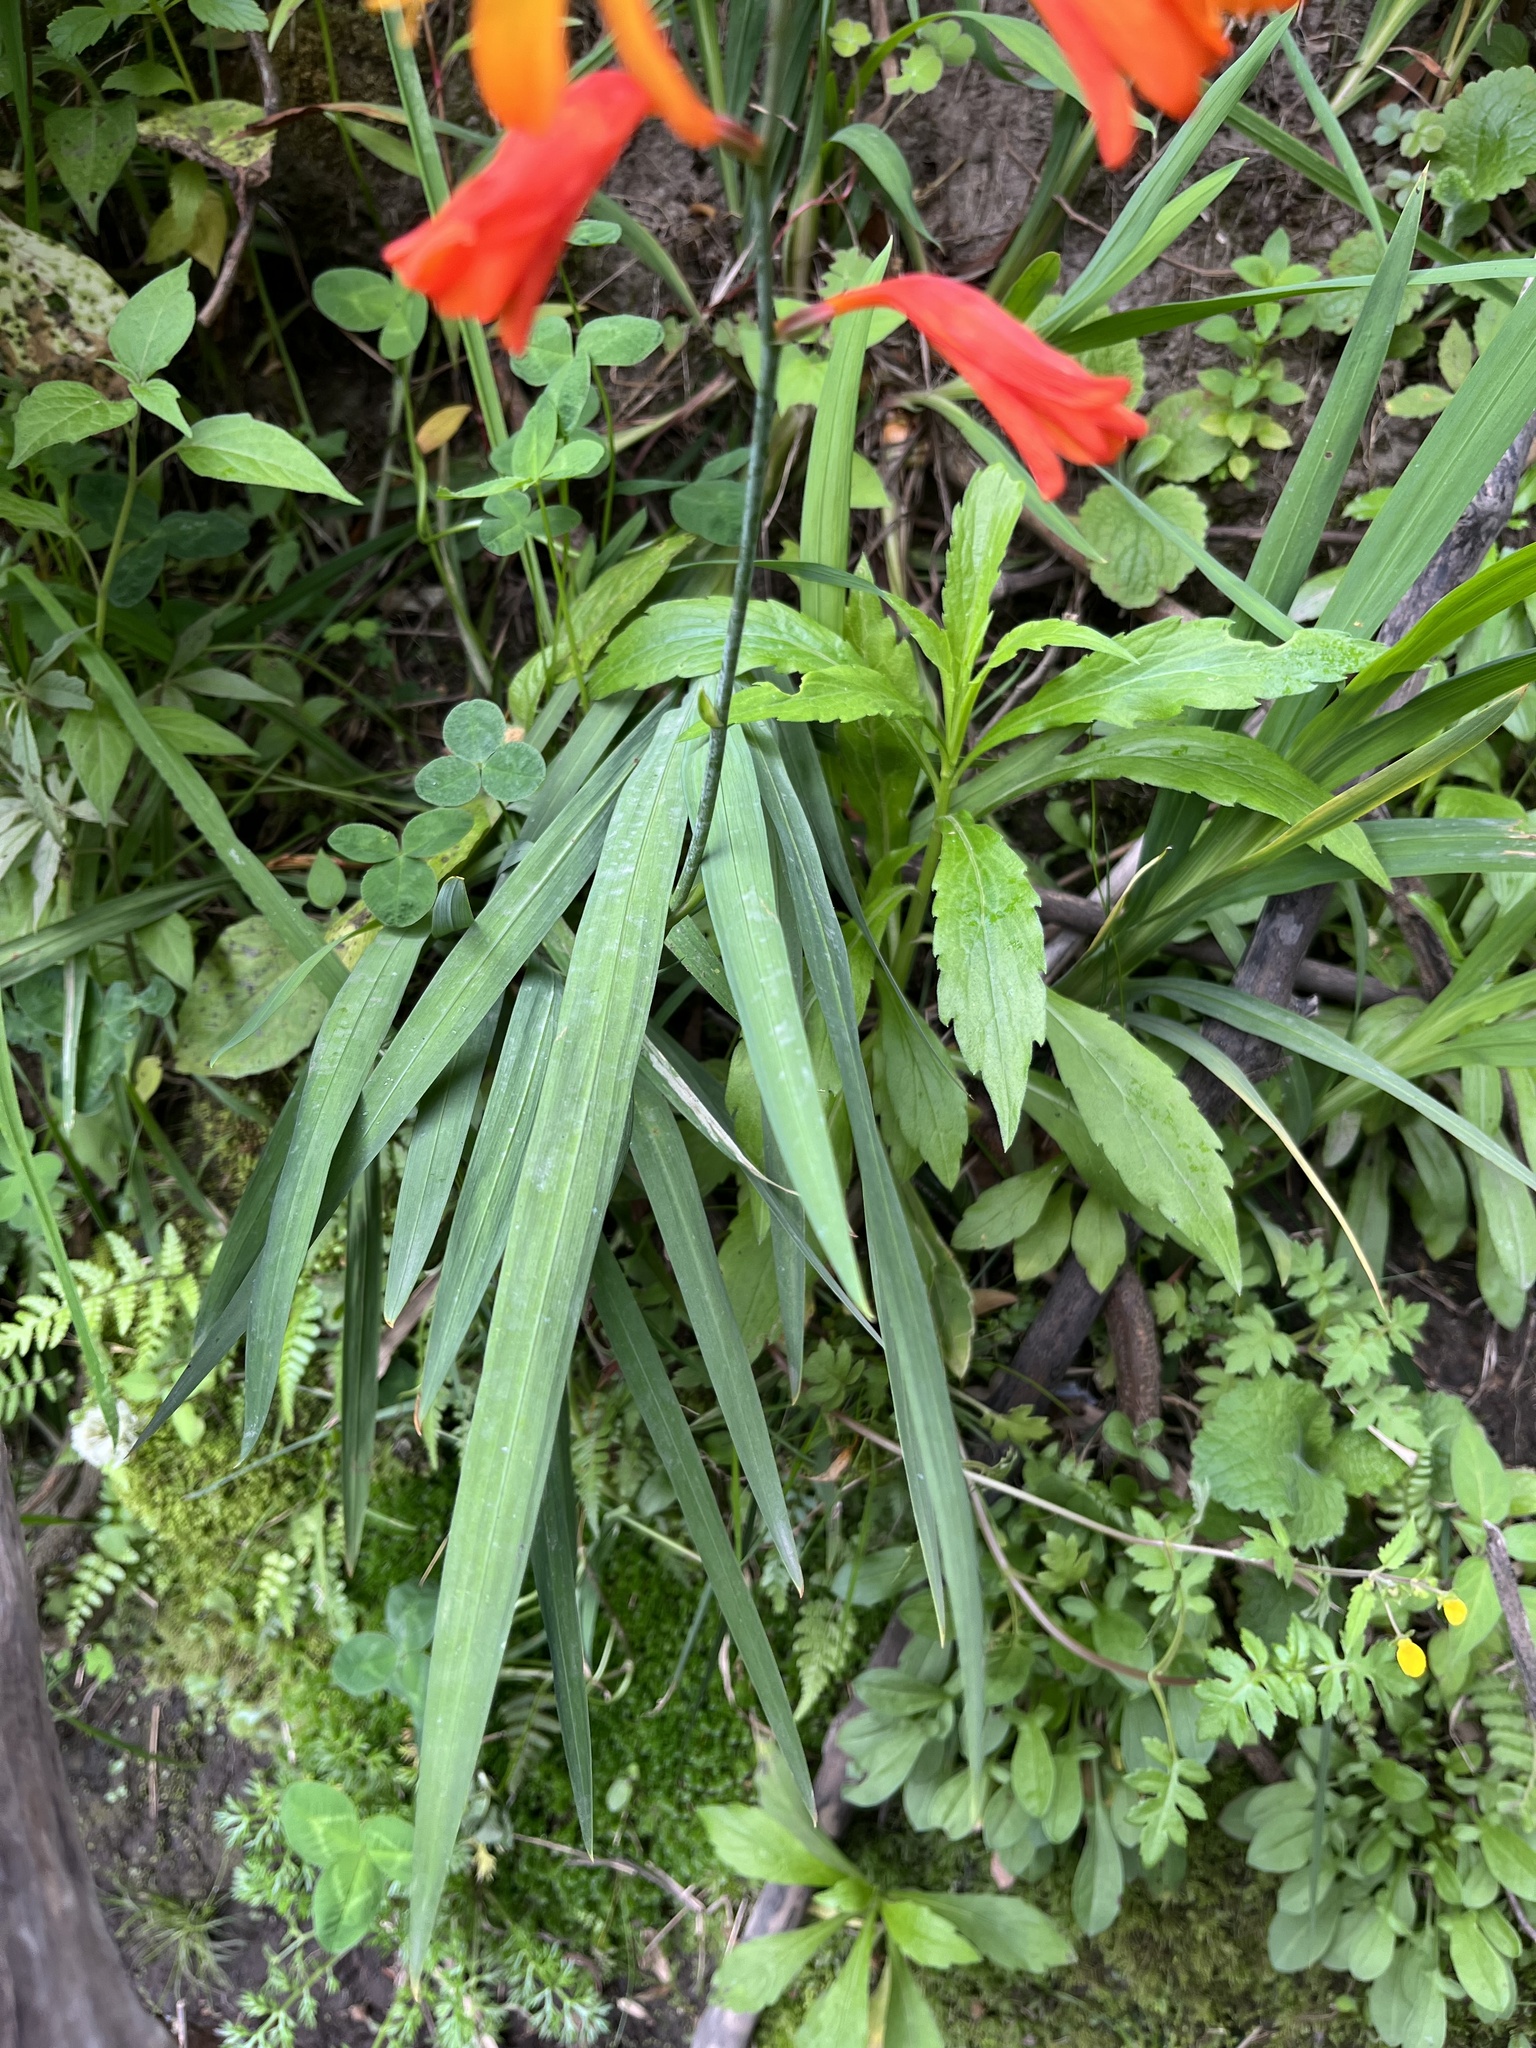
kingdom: Plantae
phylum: Tracheophyta
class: Liliopsida
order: Asparagales
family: Iridaceae
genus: Crocosmia
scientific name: Crocosmia crocosmiiflora
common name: Montbretia
